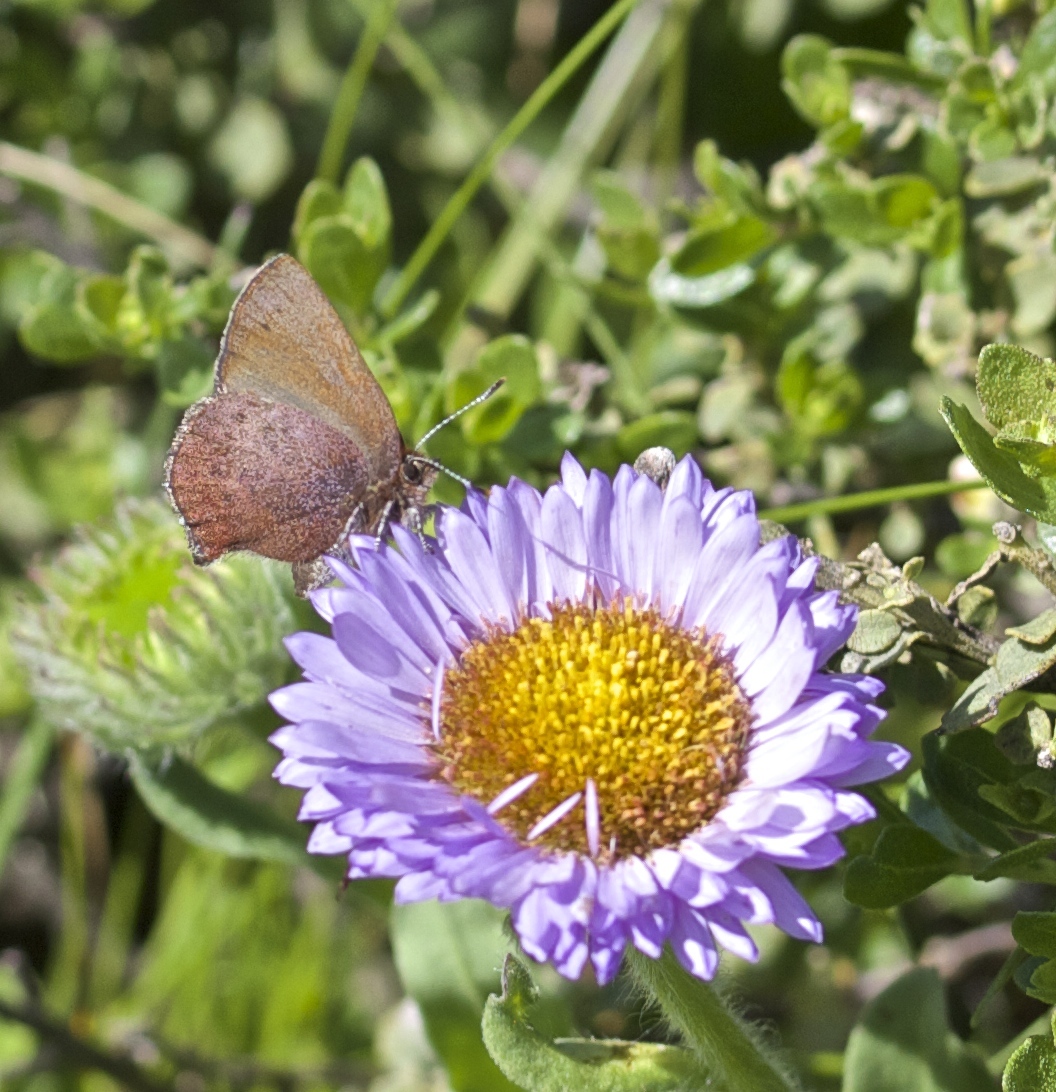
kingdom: Animalia
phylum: Arthropoda
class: Insecta
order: Lepidoptera
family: Lycaenidae
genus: Thecla
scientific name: Thecla iroides
